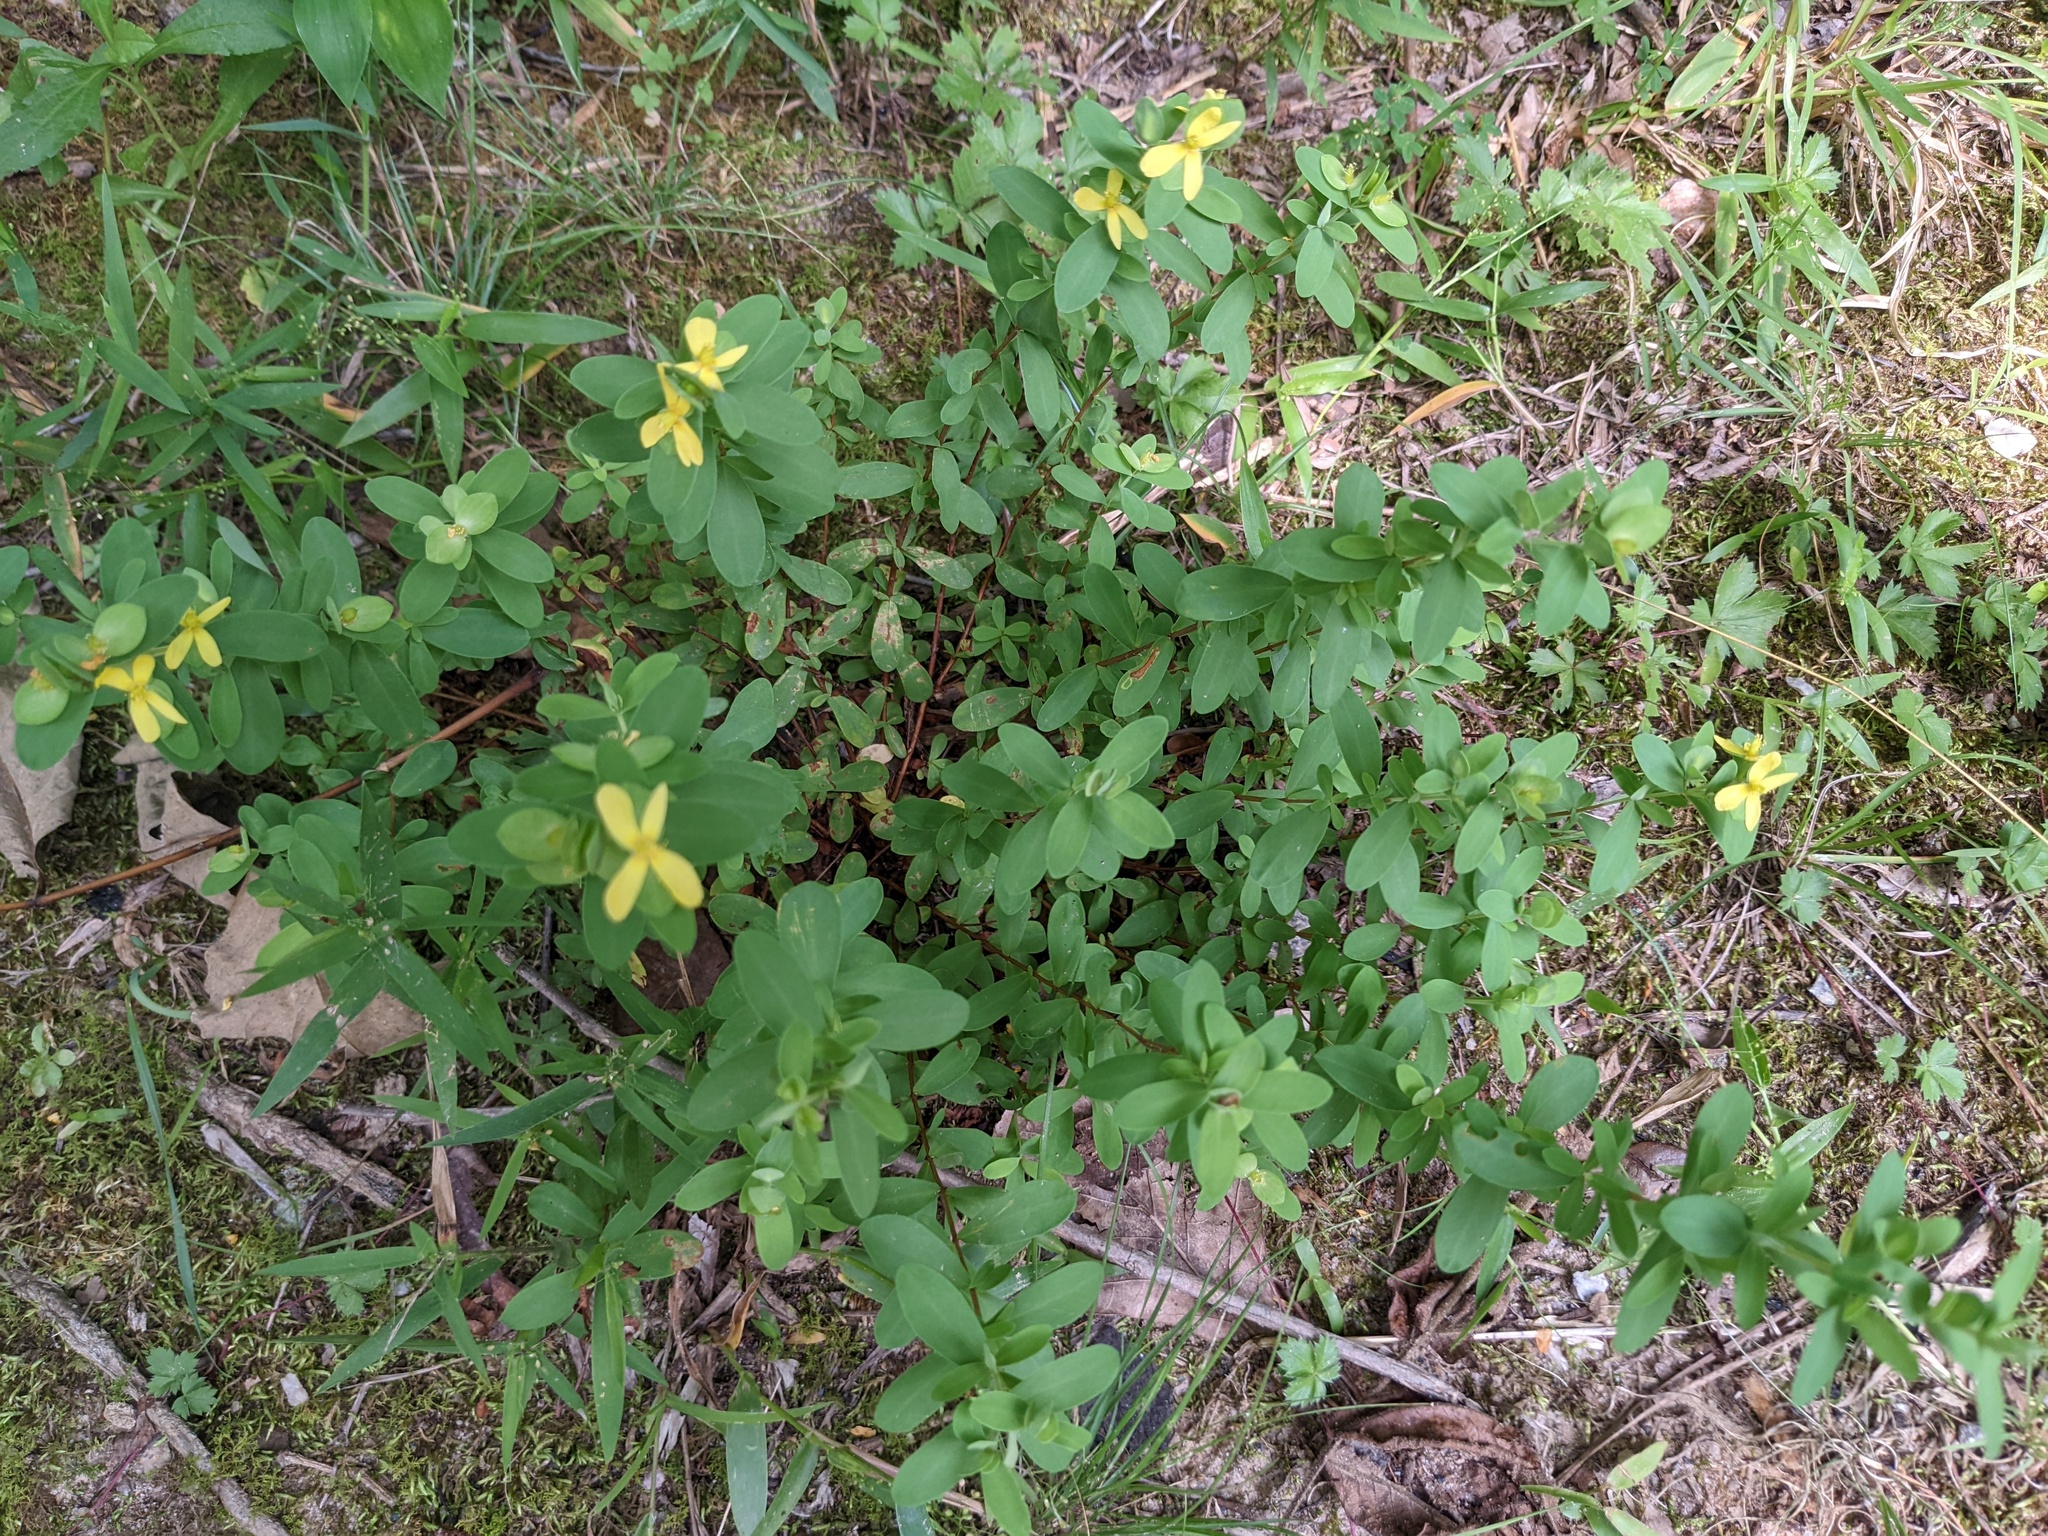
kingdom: Plantae
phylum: Tracheophyta
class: Magnoliopsida
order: Malpighiales
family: Hypericaceae
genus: Hypericum
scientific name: Hypericum hypericoides
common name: St. andrew's cross
